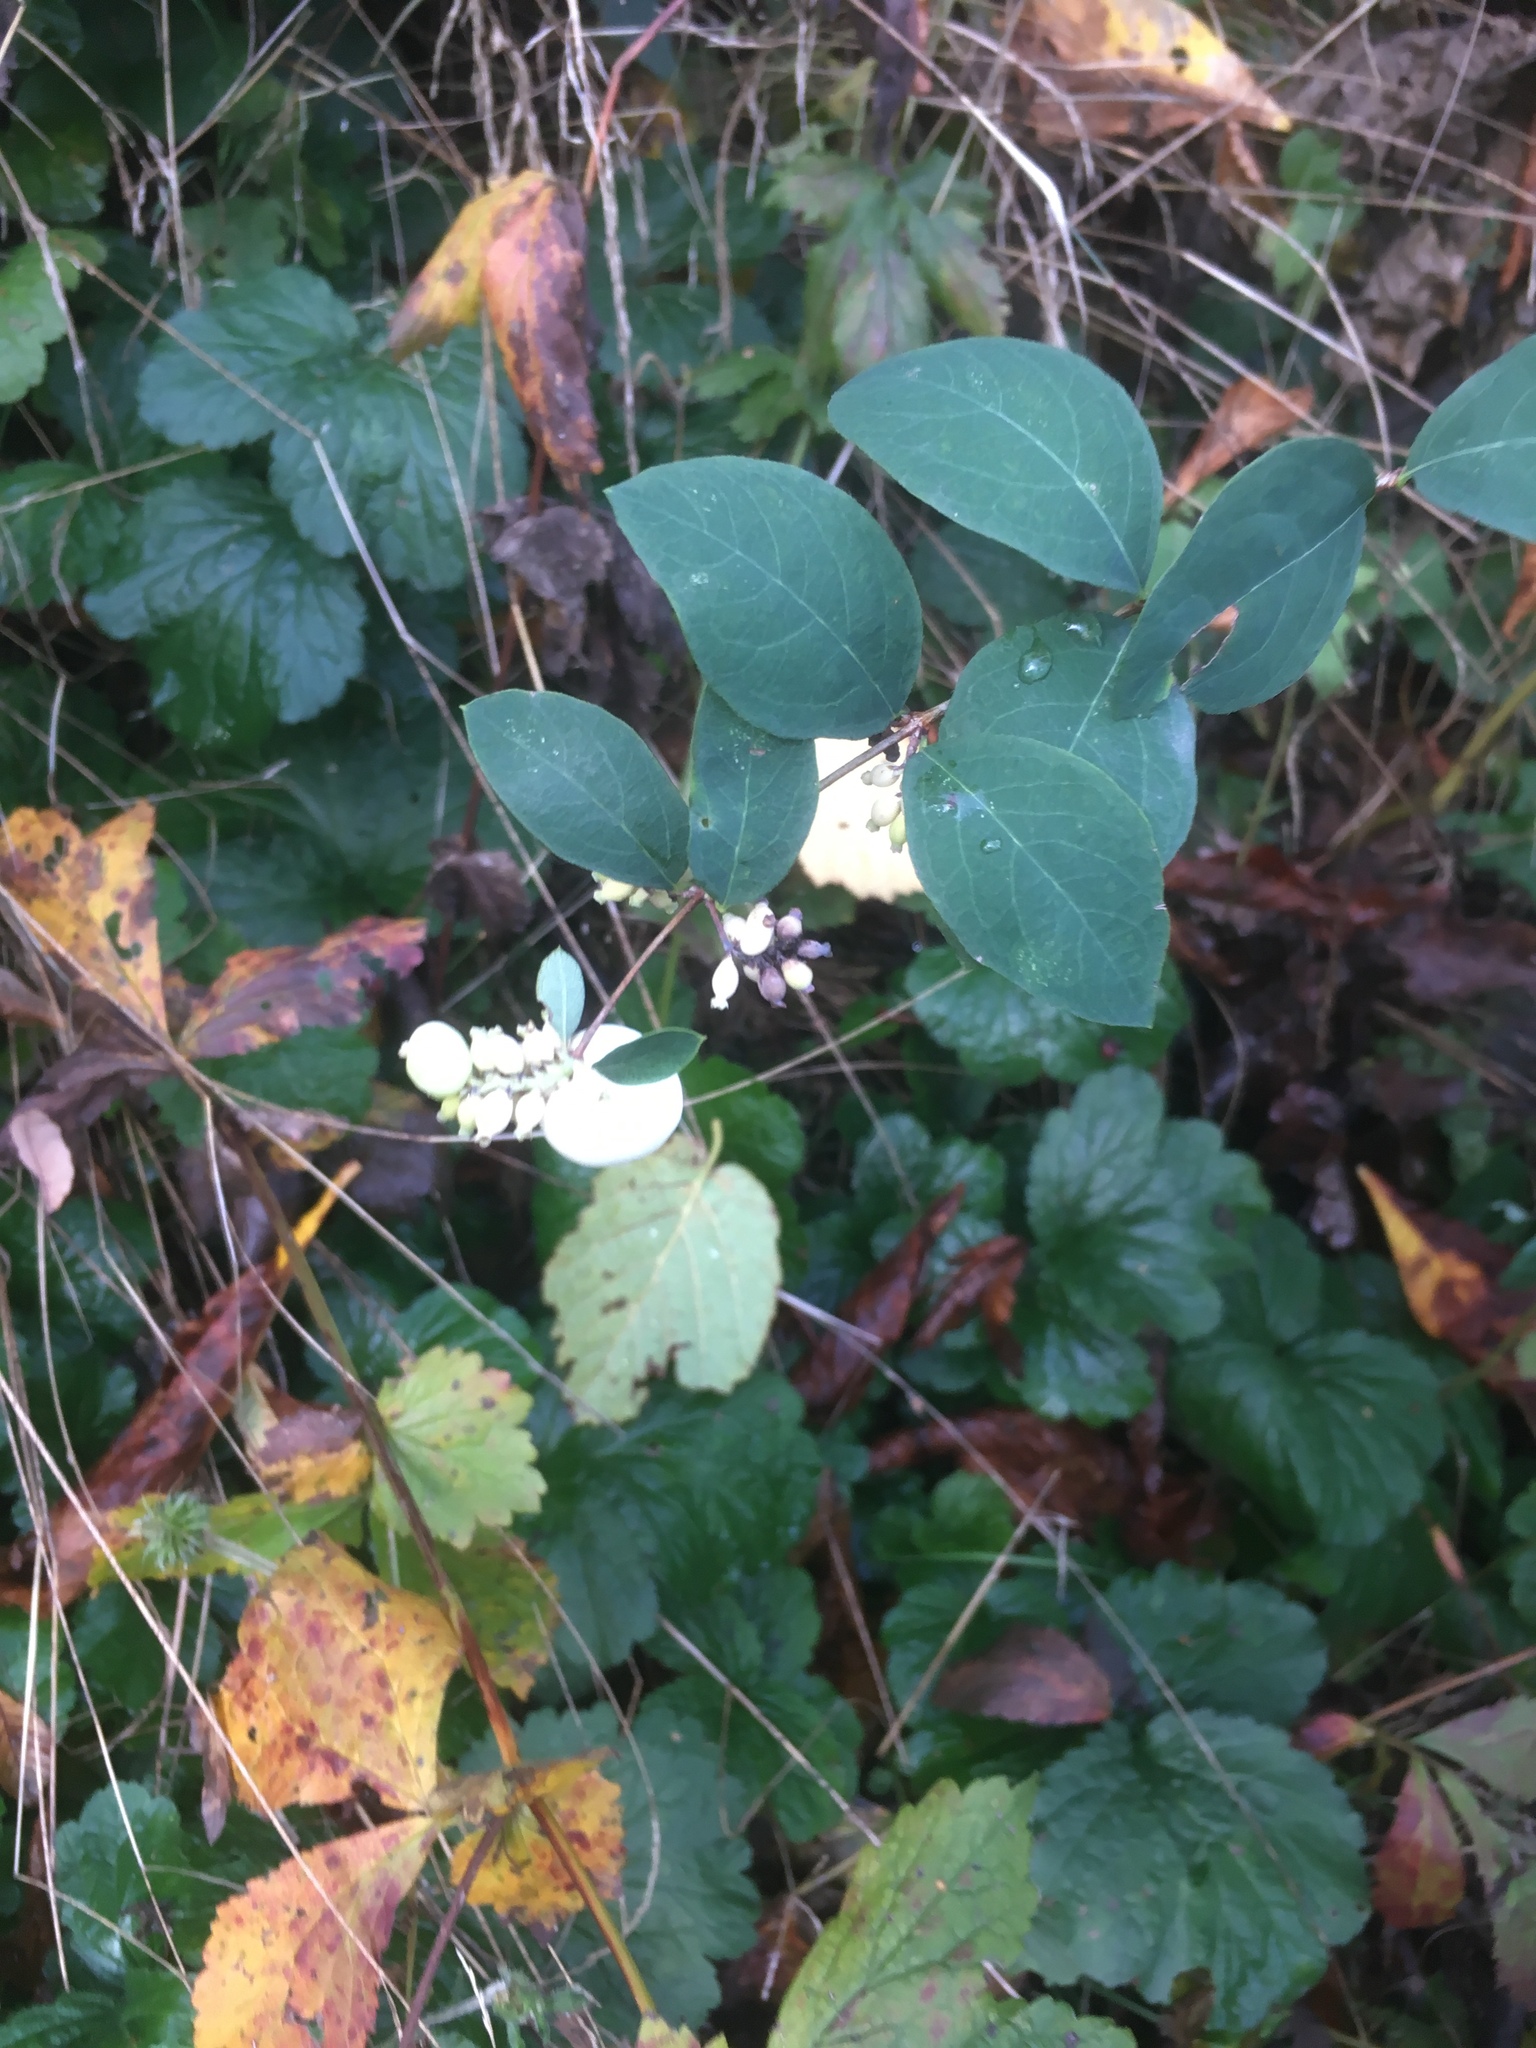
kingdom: Plantae
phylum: Tracheophyta
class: Magnoliopsida
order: Dipsacales
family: Caprifoliaceae
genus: Symphoricarpos
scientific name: Symphoricarpos albus
